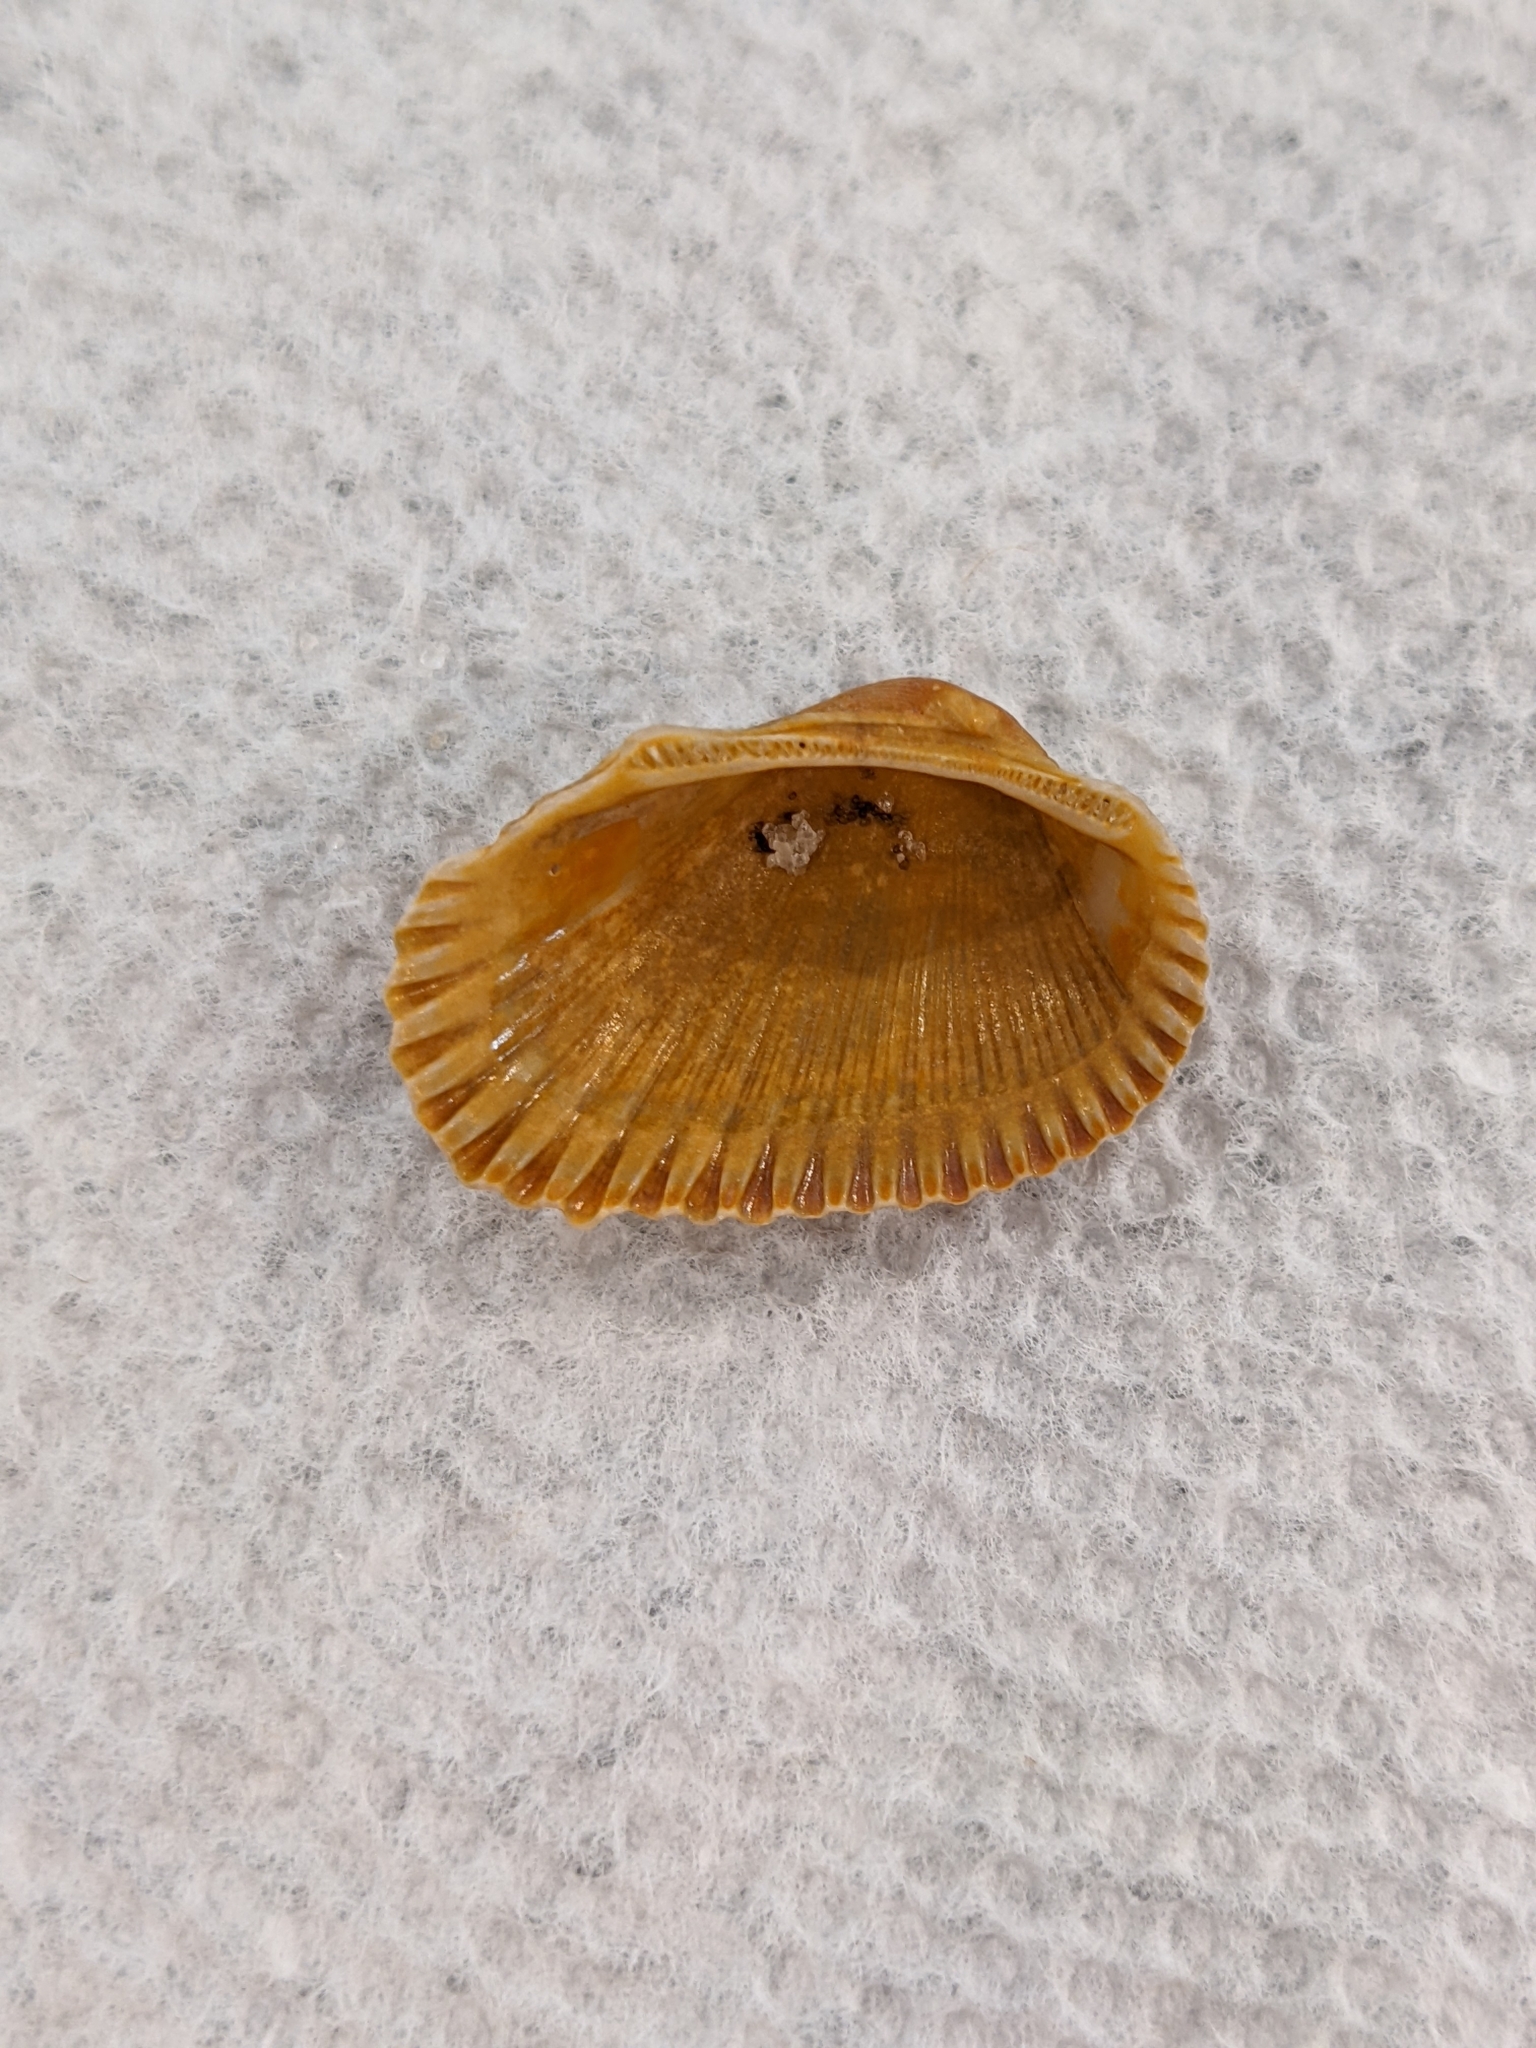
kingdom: Animalia
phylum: Mollusca
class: Bivalvia
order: Arcida
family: Arcidae
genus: Anadara
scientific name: Anadara transversa
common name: Transverse ark
